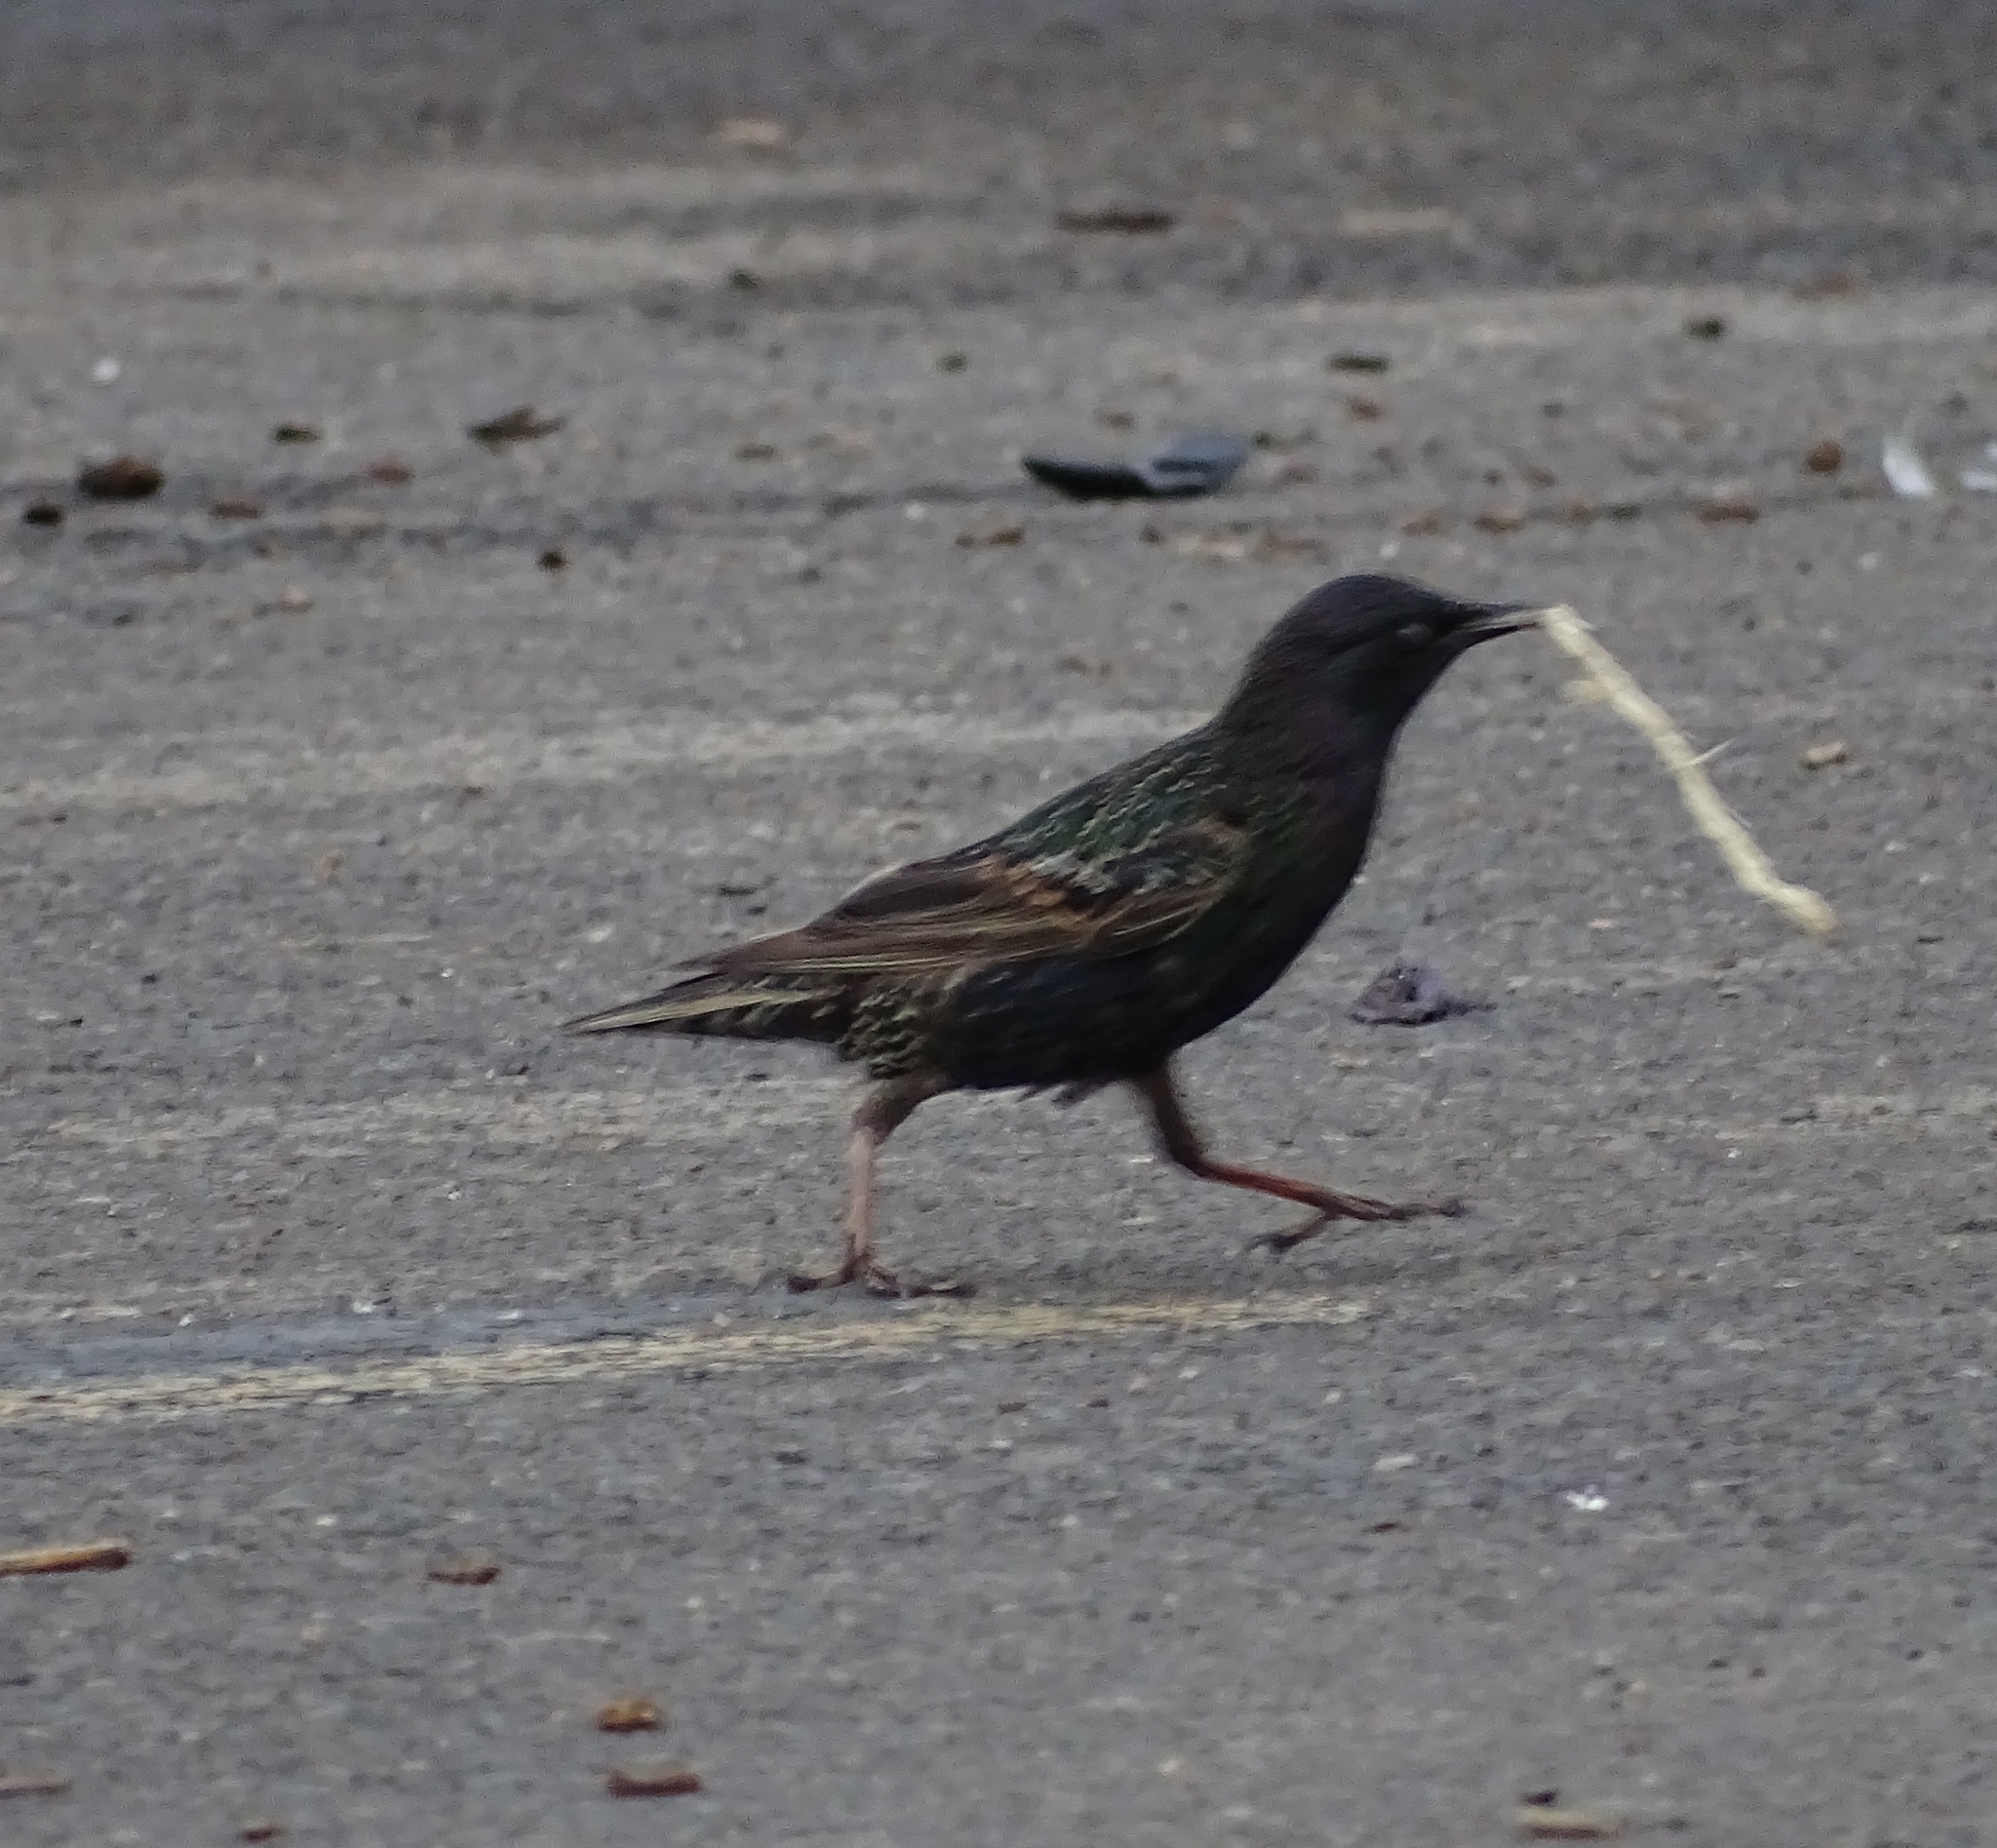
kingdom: Animalia
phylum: Chordata
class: Aves
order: Passeriformes
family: Sturnidae
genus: Sturnus
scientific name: Sturnus vulgaris
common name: Common starling
